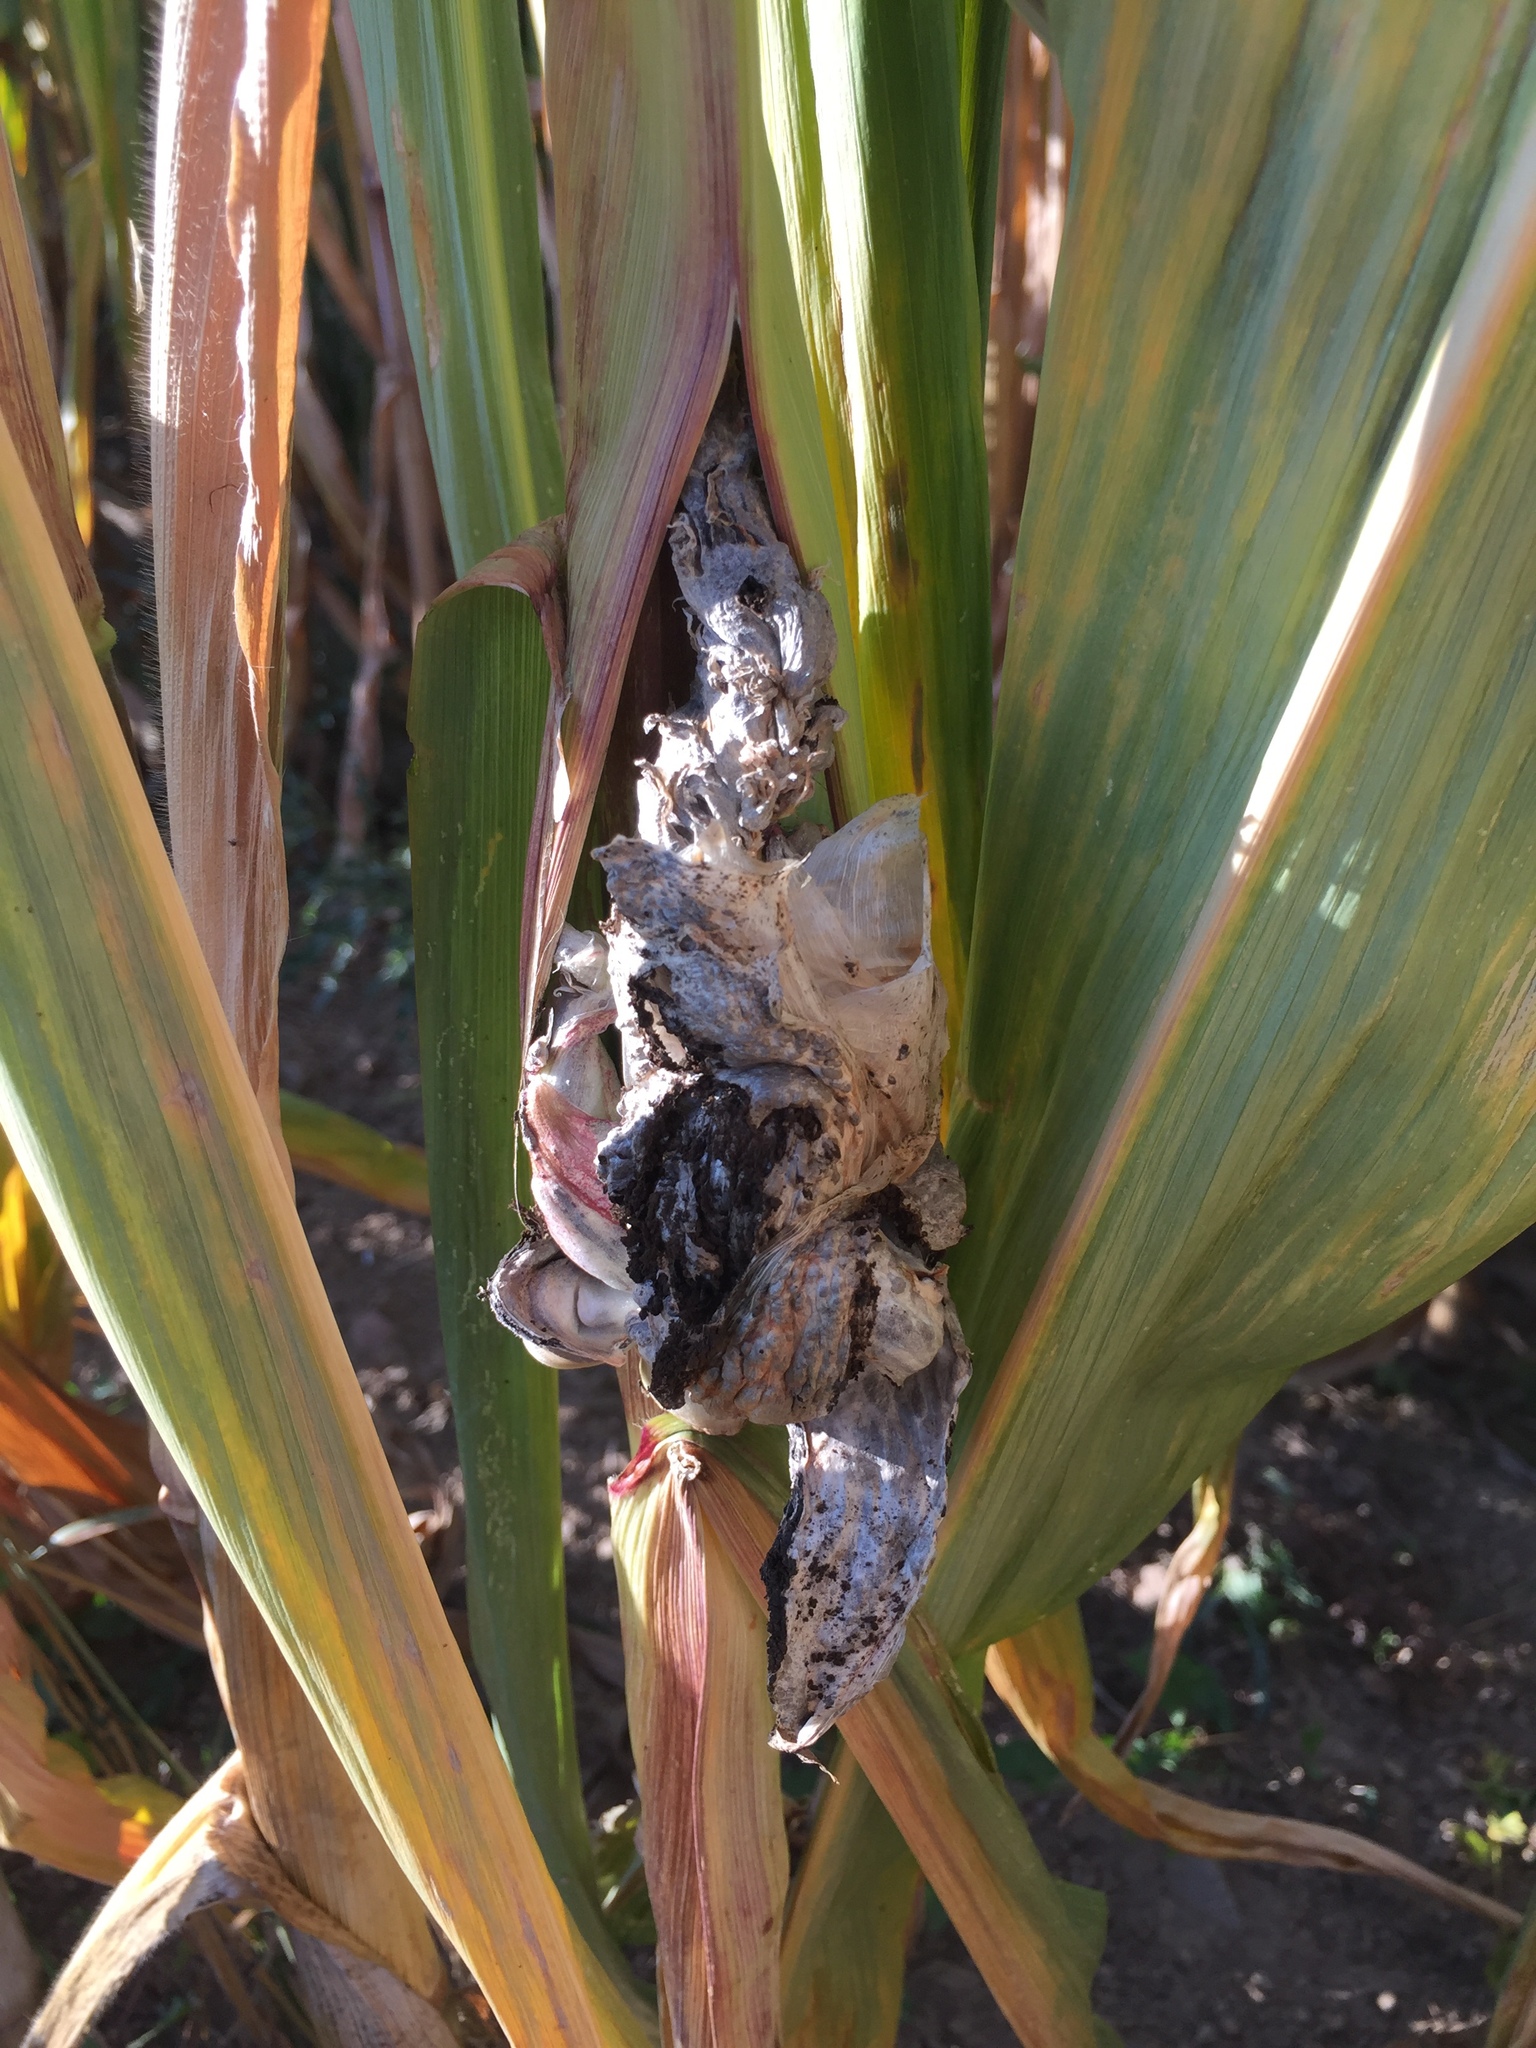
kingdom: Fungi
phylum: Basidiomycota
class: Ustilaginomycetes
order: Ustilaginales
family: Ustilaginaceae
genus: Mycosarcoma
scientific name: Mycosarcoma maydis
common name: Corn smut
